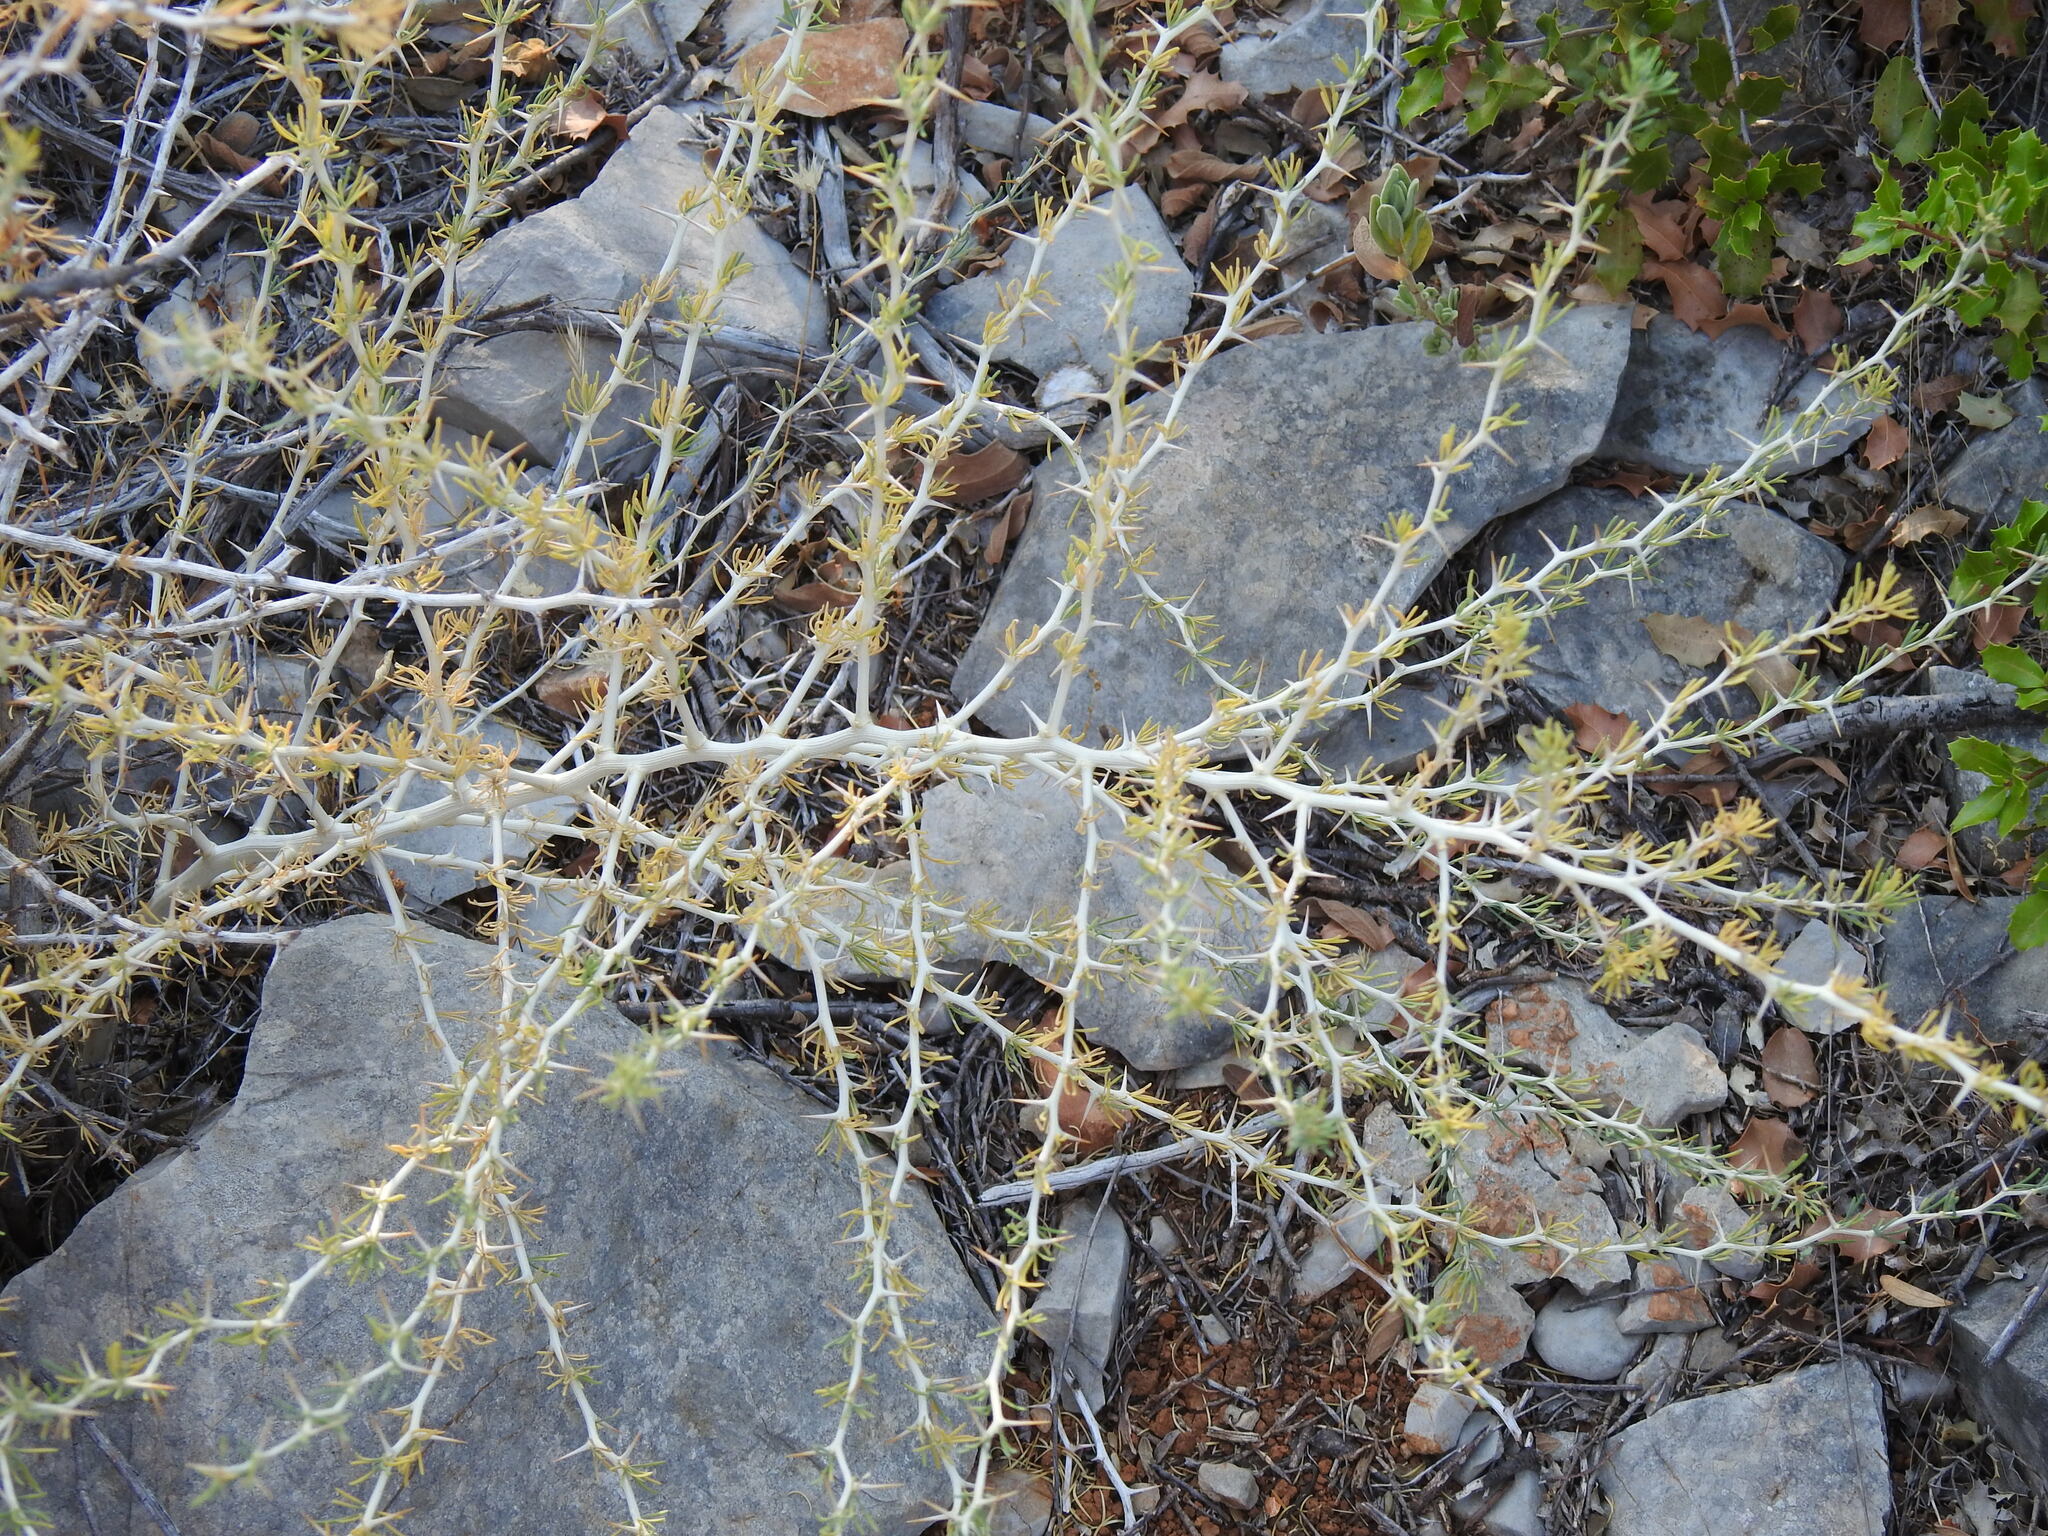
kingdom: Plantae
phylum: Tracheophyta
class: Liliopsida
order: Asparagales
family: Asparagaceae
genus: Asparagus
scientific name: Asparagus albus
